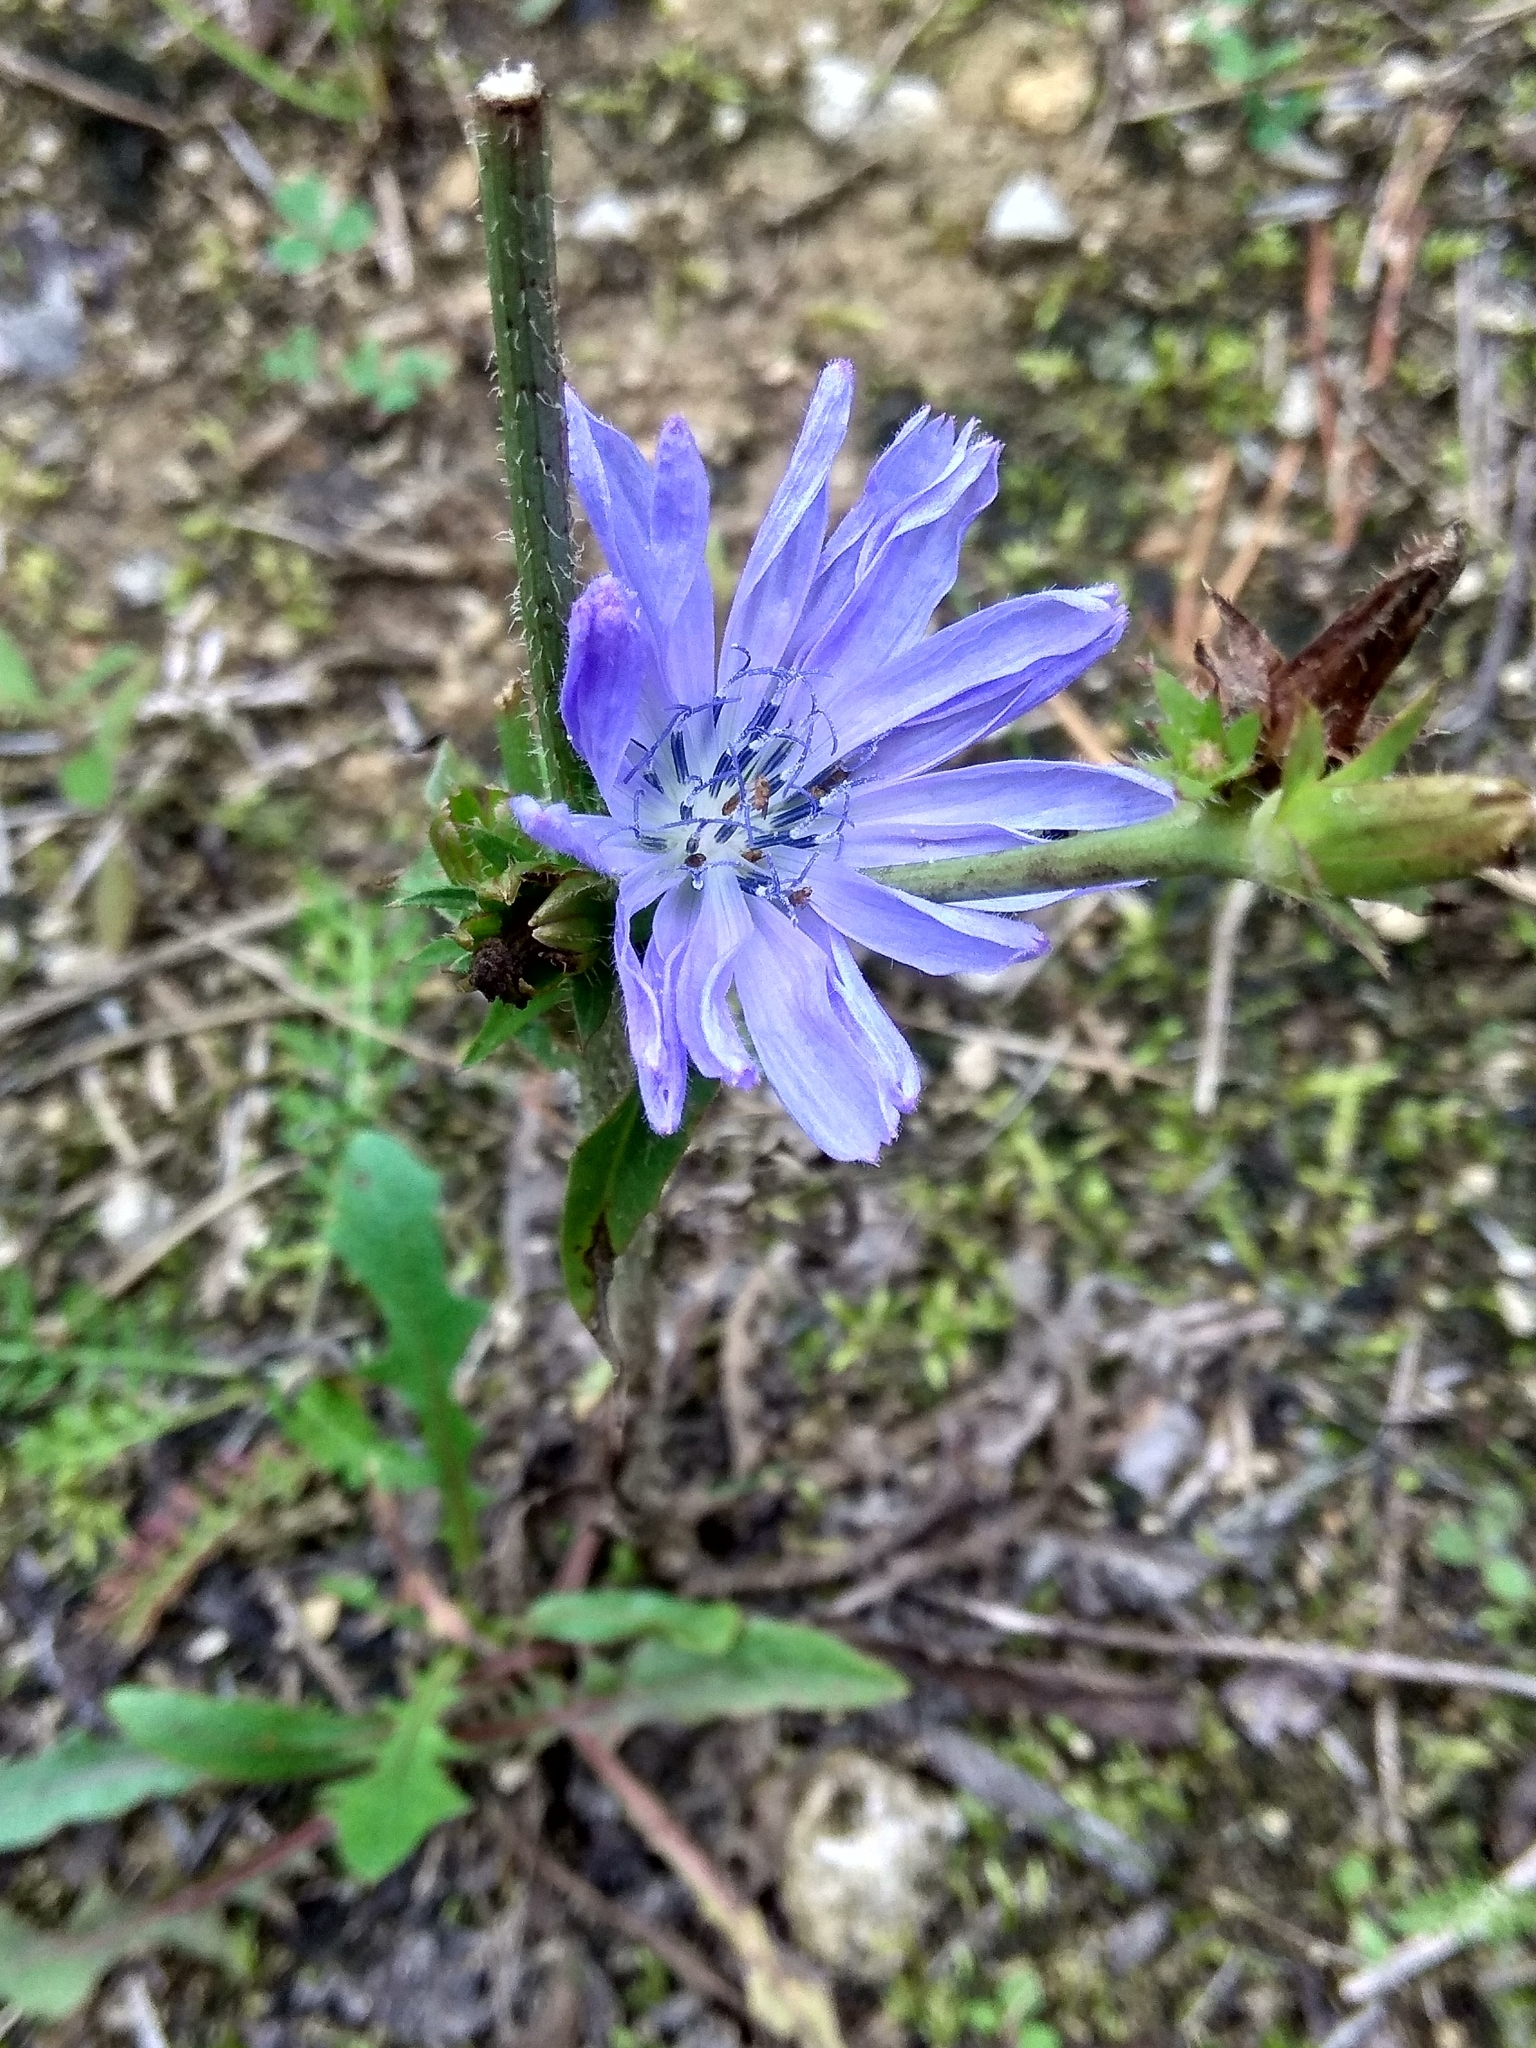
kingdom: Plantae
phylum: Tracheophyta
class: Magnoliopsida
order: Asterales
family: Asteraceae
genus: Cichorium
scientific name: Cichorium intybus
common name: Chicory
